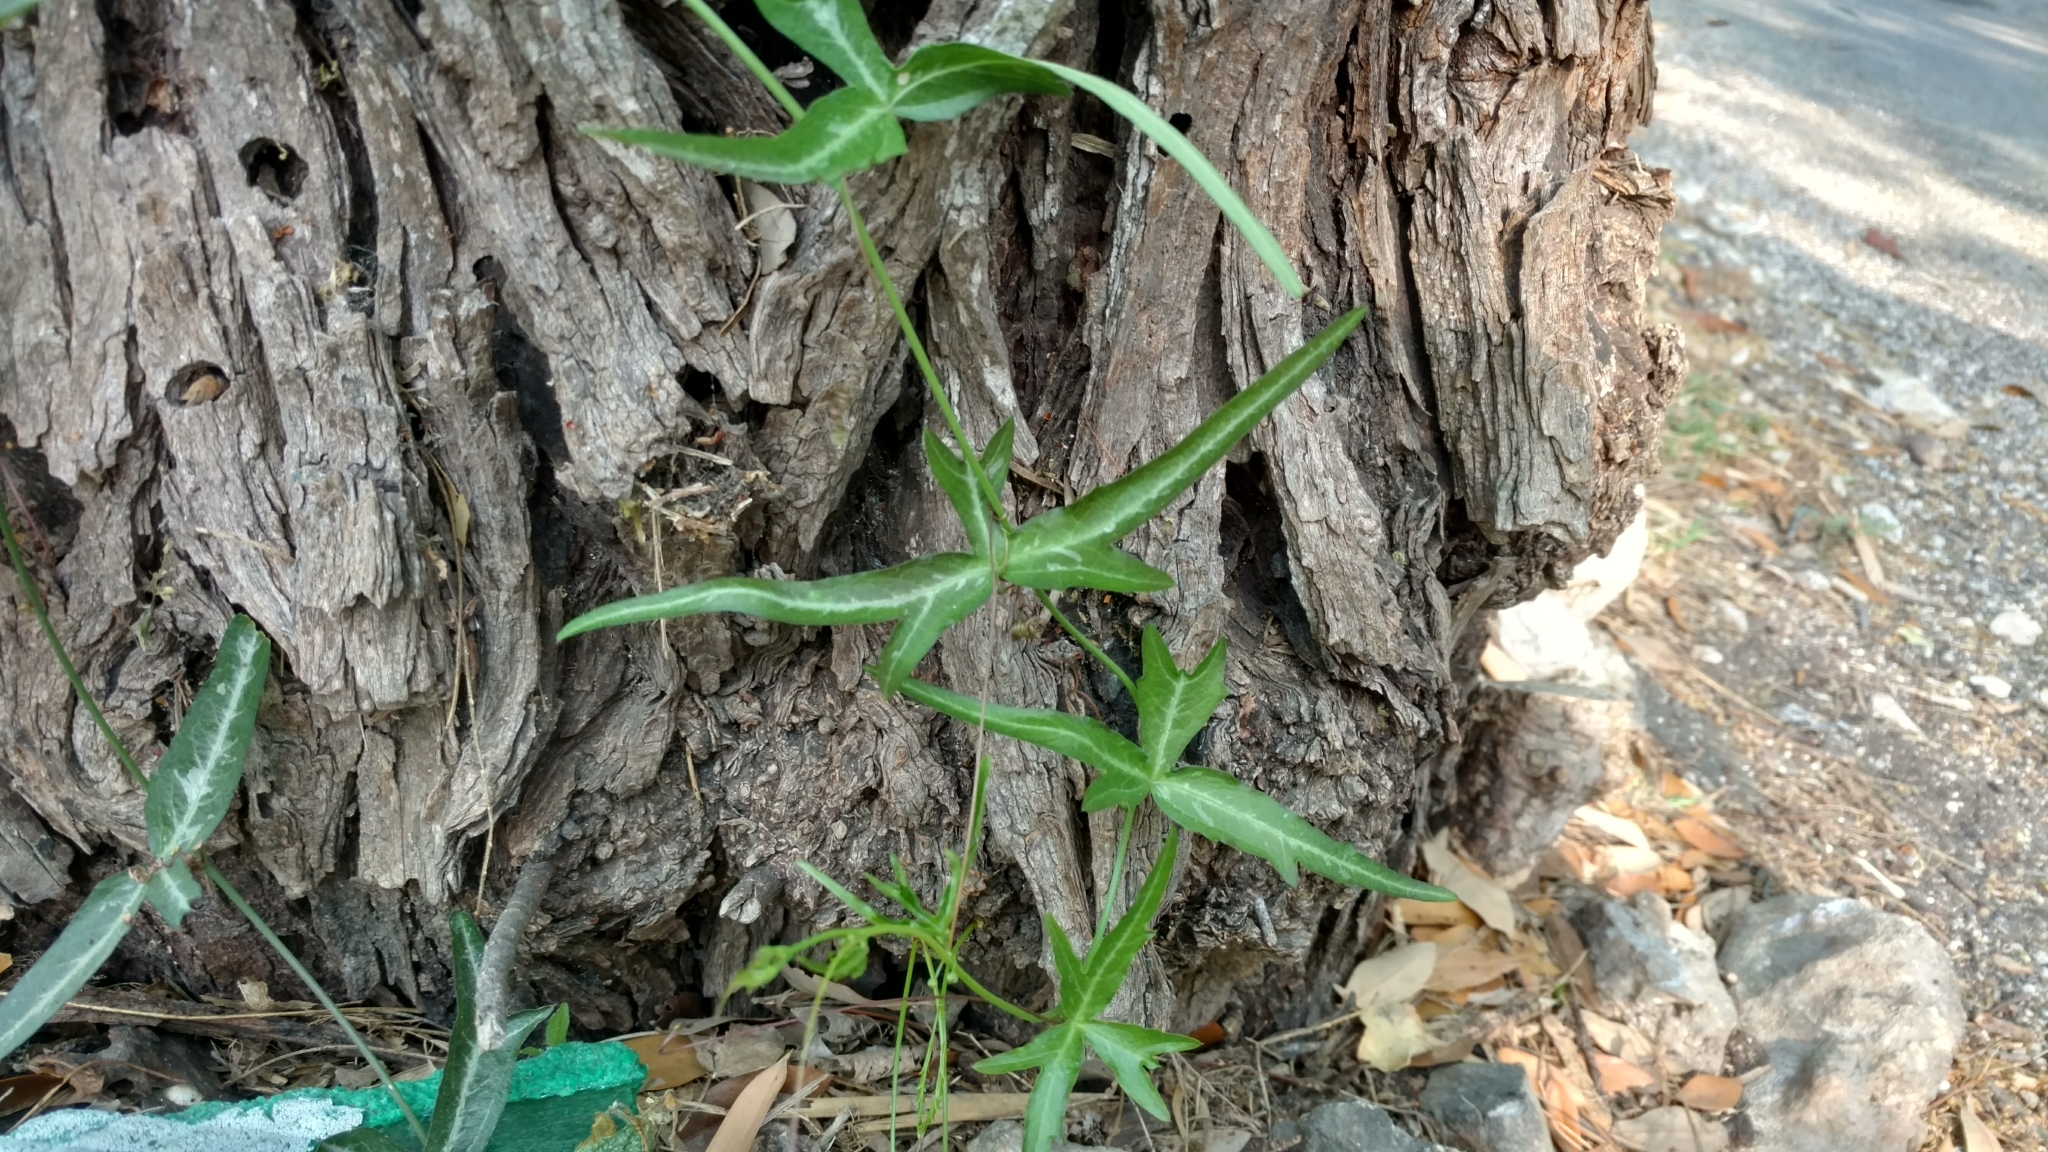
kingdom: Plantae
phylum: Tracheophyta
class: Magnoliopsida
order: Malpighiales
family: Passifloraceae
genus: Passiflora
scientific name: Passiflora tenuiloba
